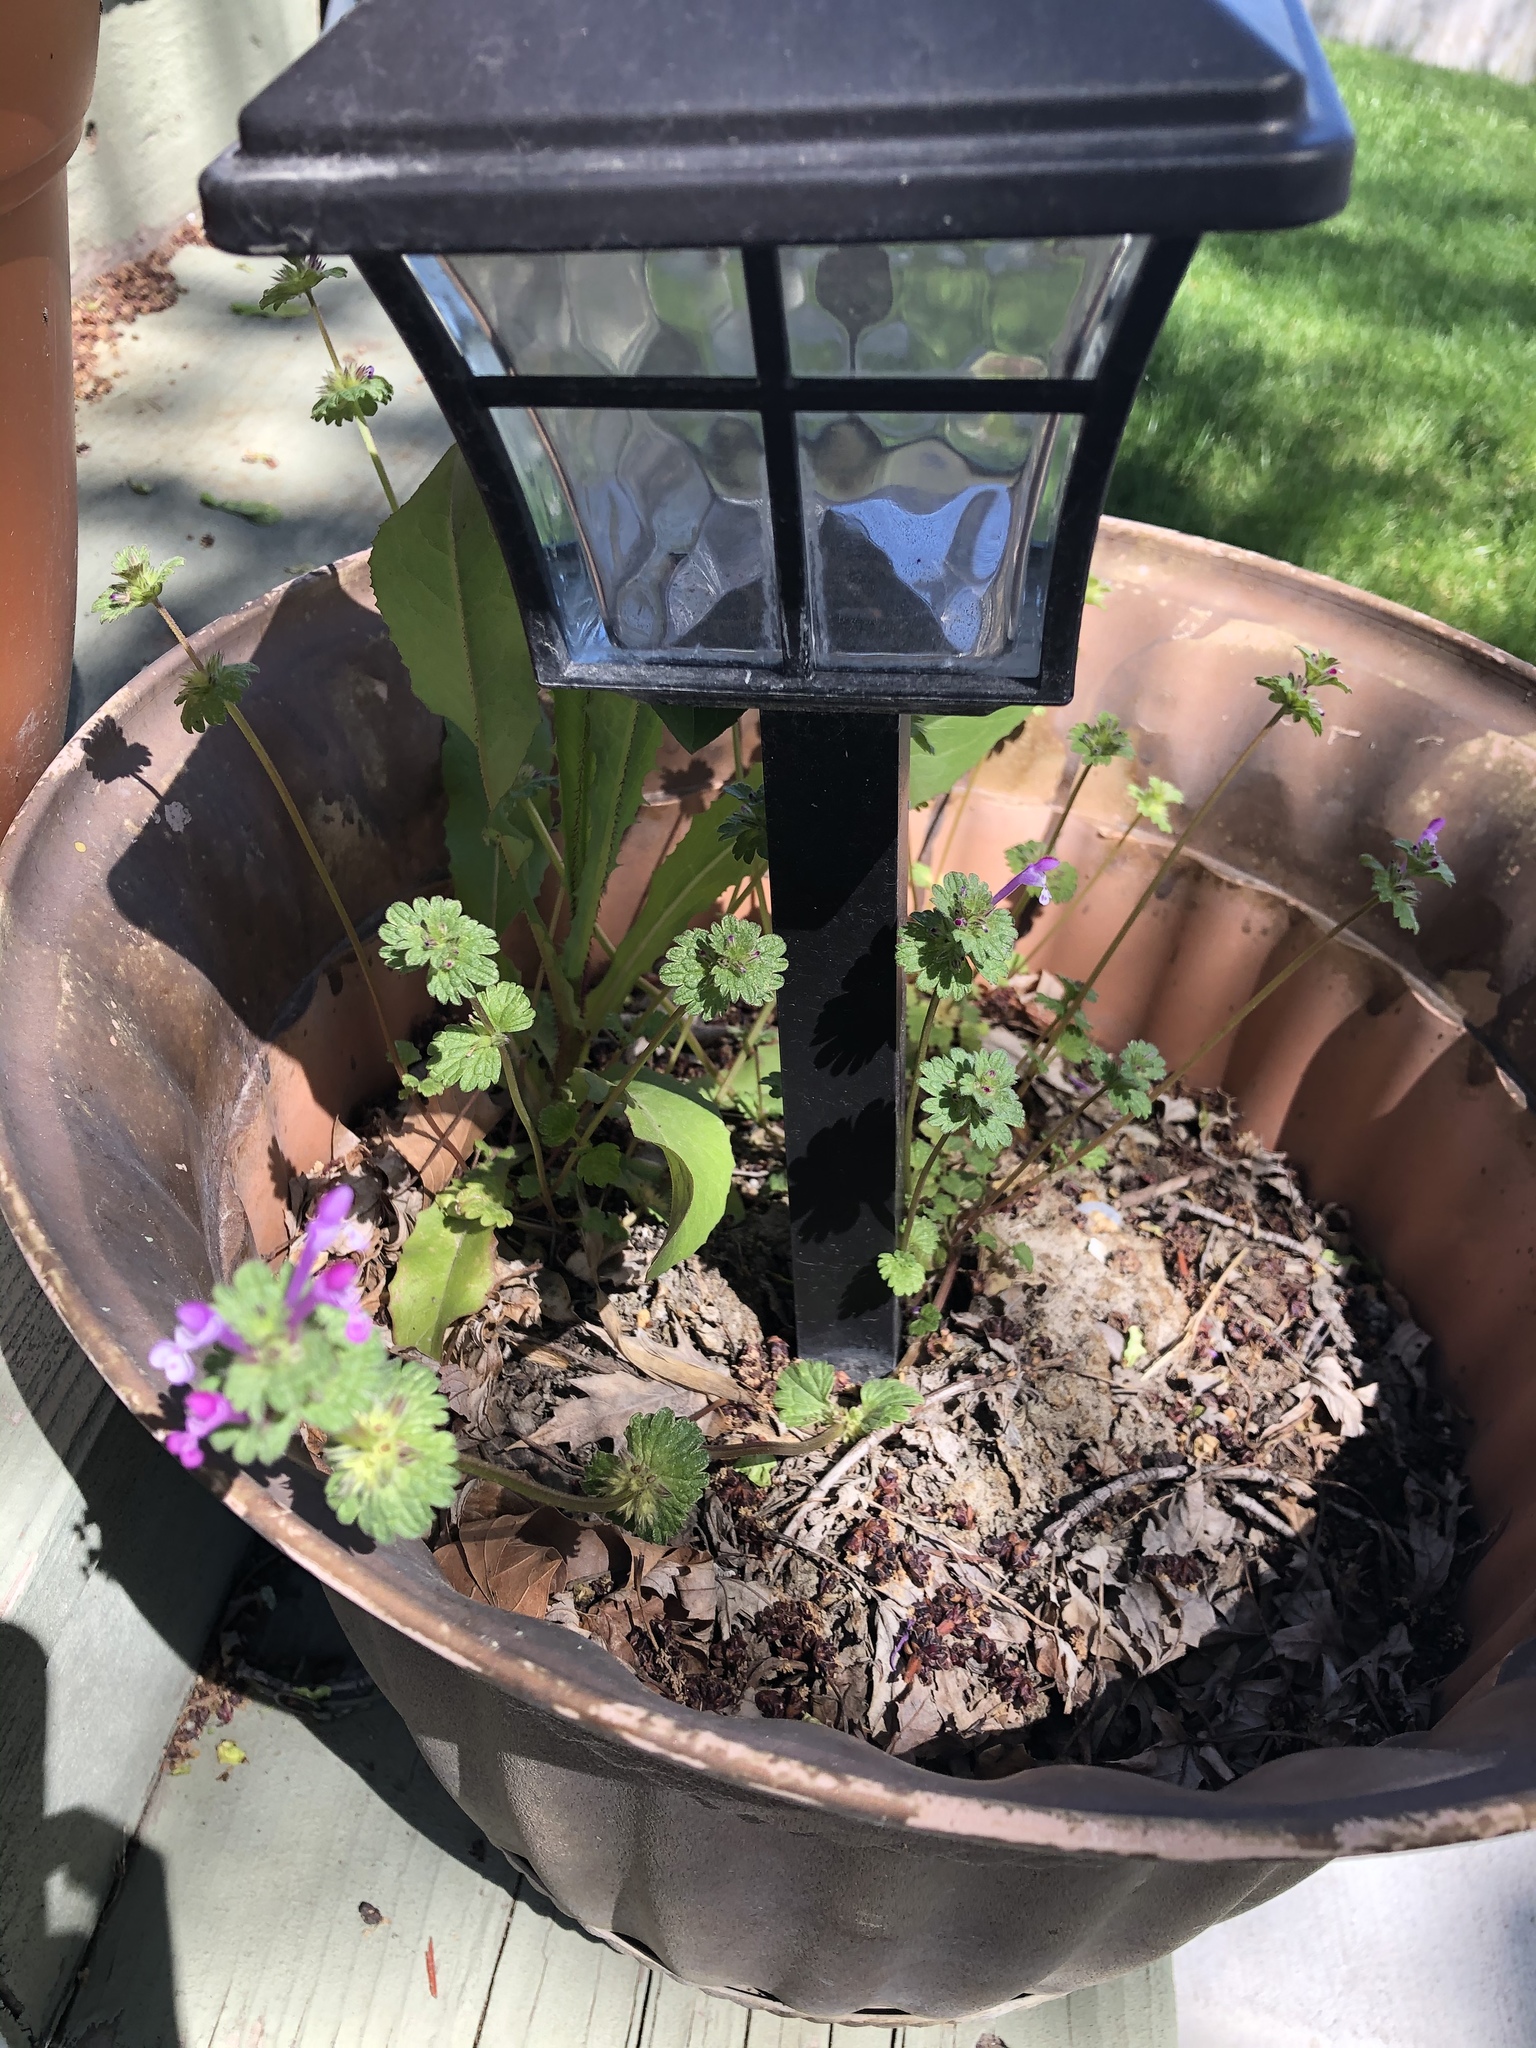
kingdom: Plantae
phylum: Tracheophyta
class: Magnoliopsida
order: Lamiales
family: Lamiaceae
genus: Lamium
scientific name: Lamium amplexicaule
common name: Henbit dead-nettle
